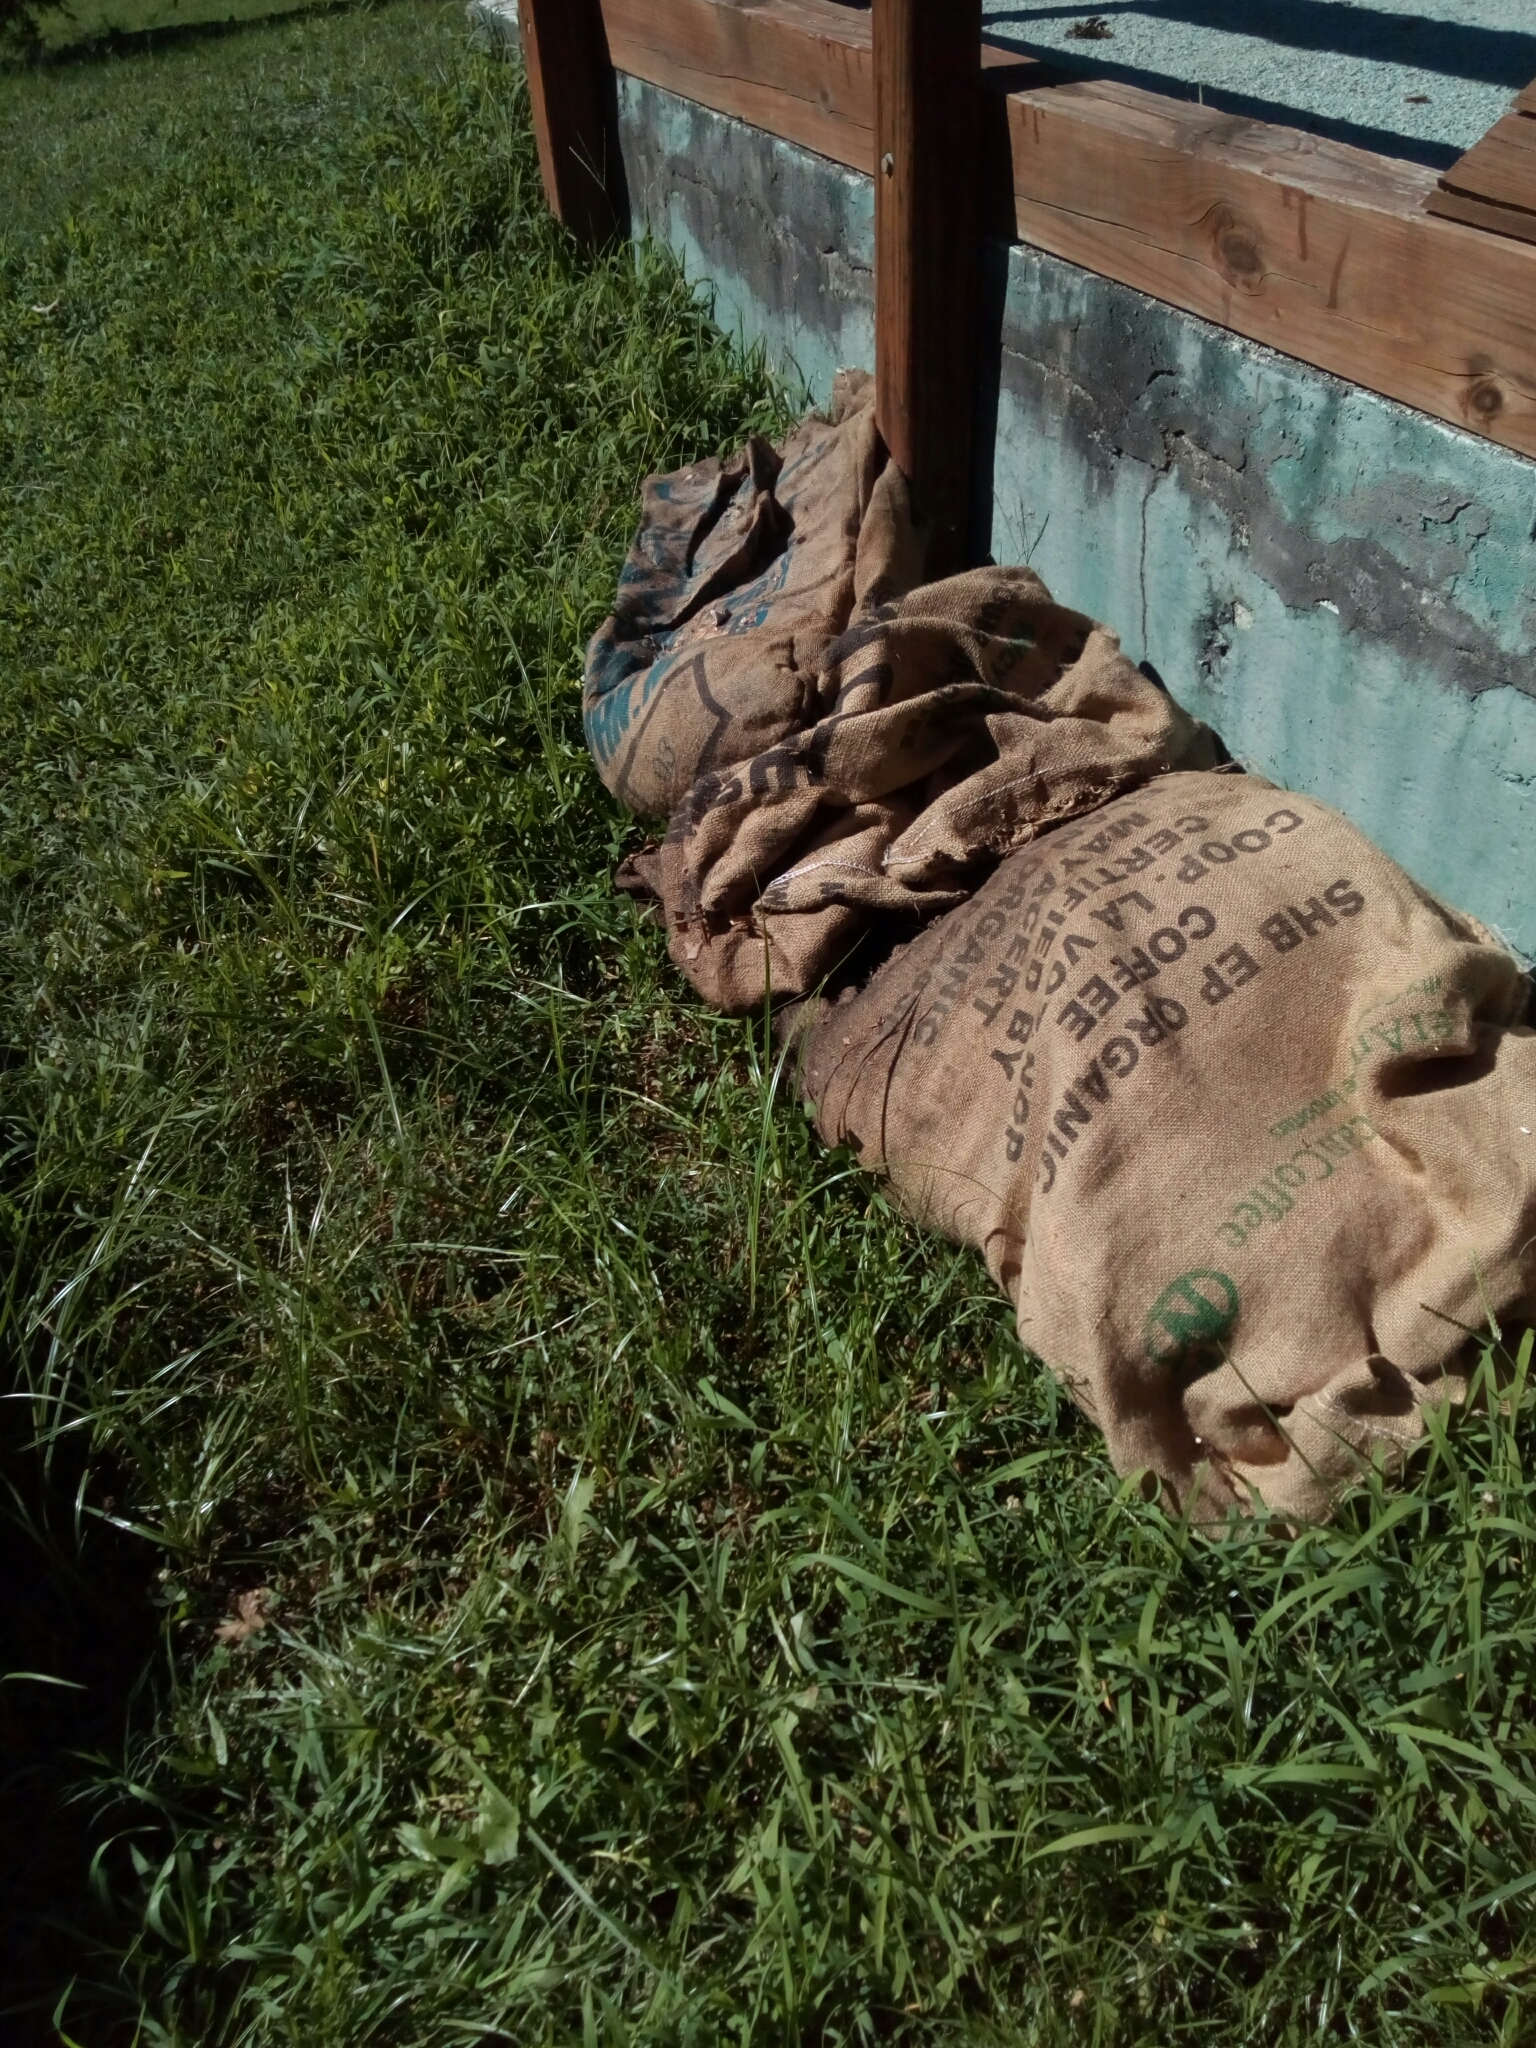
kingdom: Animalia
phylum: Arthropoda
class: Insecta
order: Odonata
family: Libellulidae
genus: Plathemis
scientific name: Plathemis lydia
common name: Common whitetail
